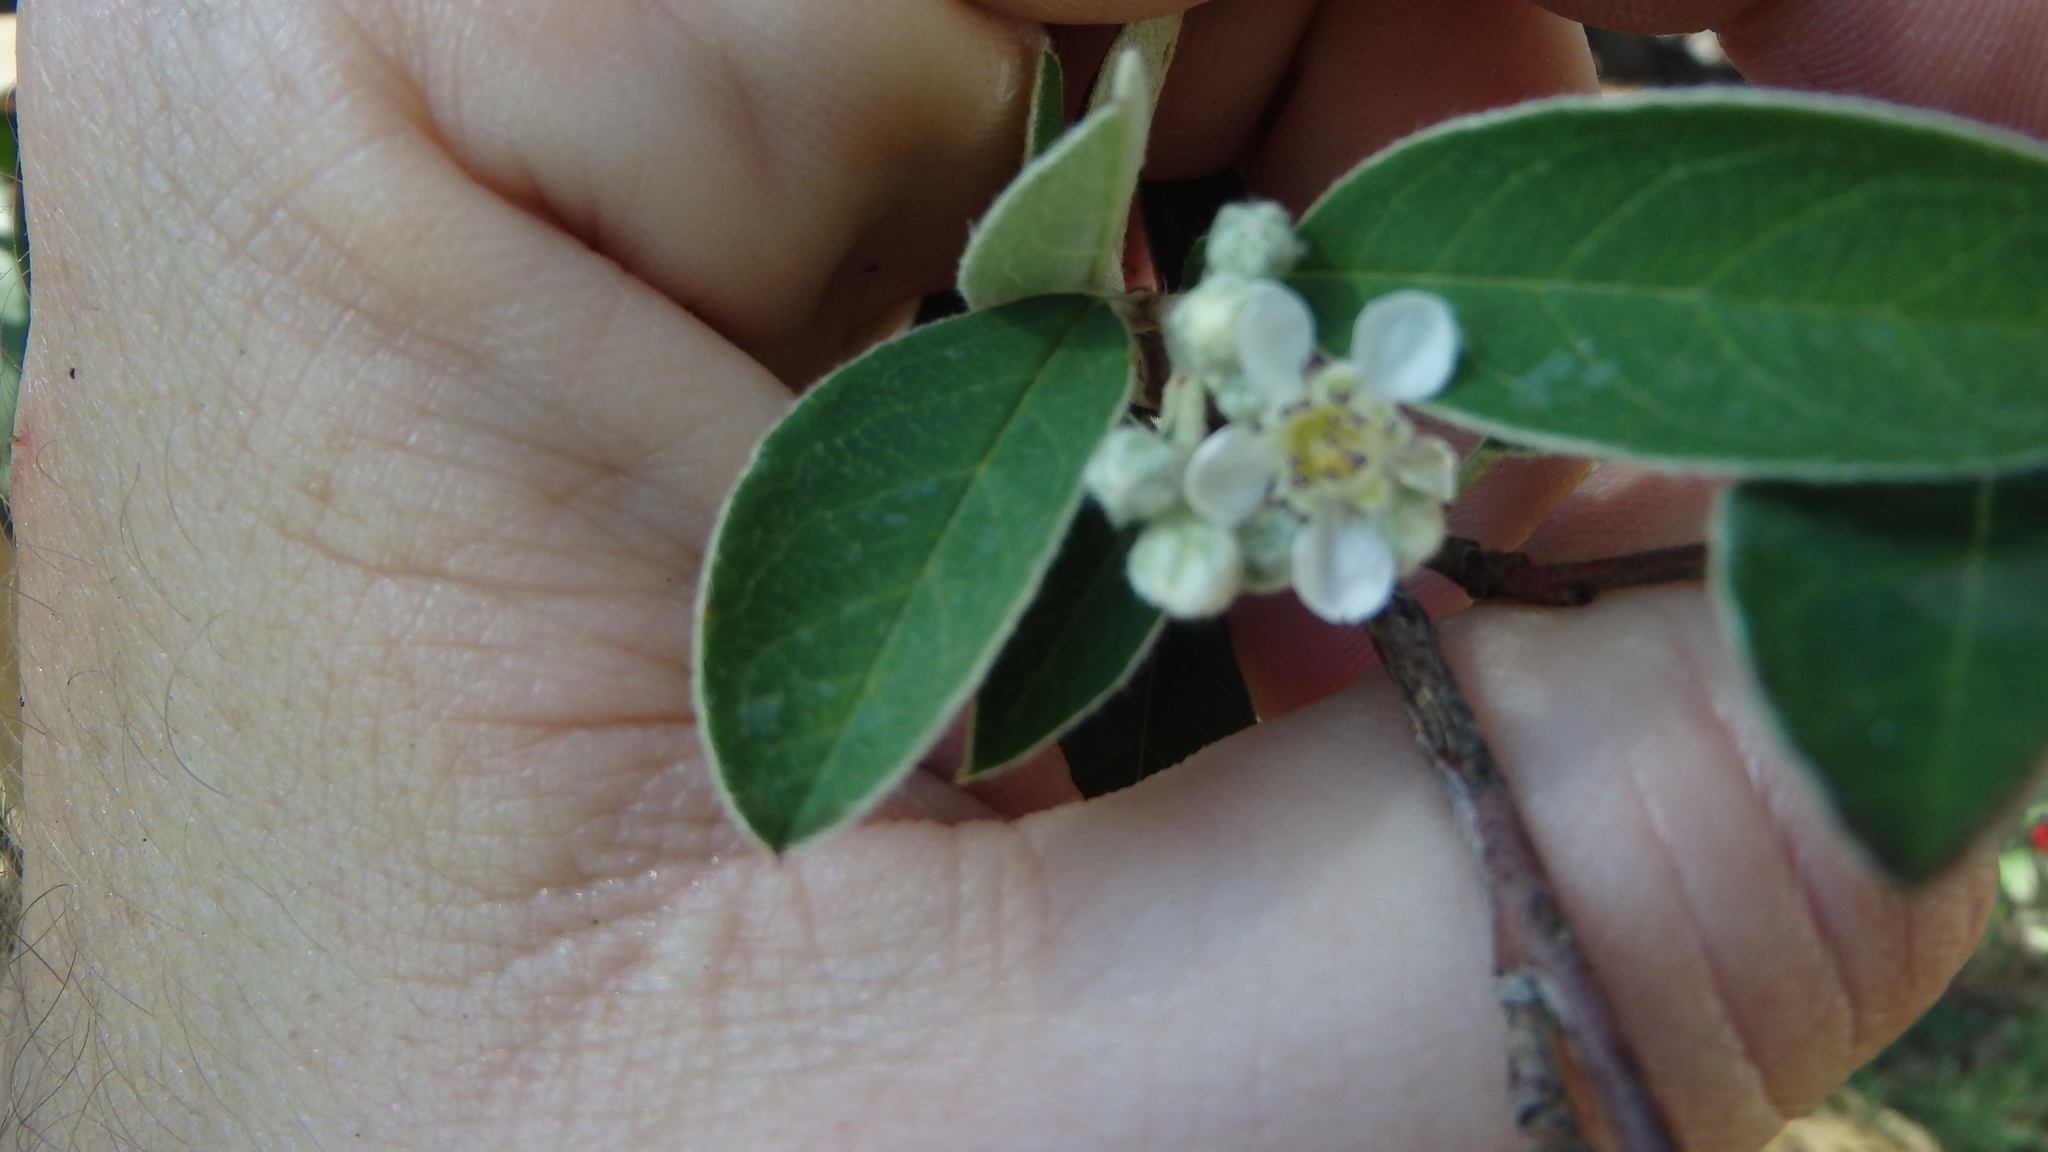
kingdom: Plantae
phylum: Tracheophyta
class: Magnoliopsida
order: Rosales
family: Rosaceae
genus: Cotoneaster
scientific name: Cotoneaster pannosus
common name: Silverleaf cotoneaster
